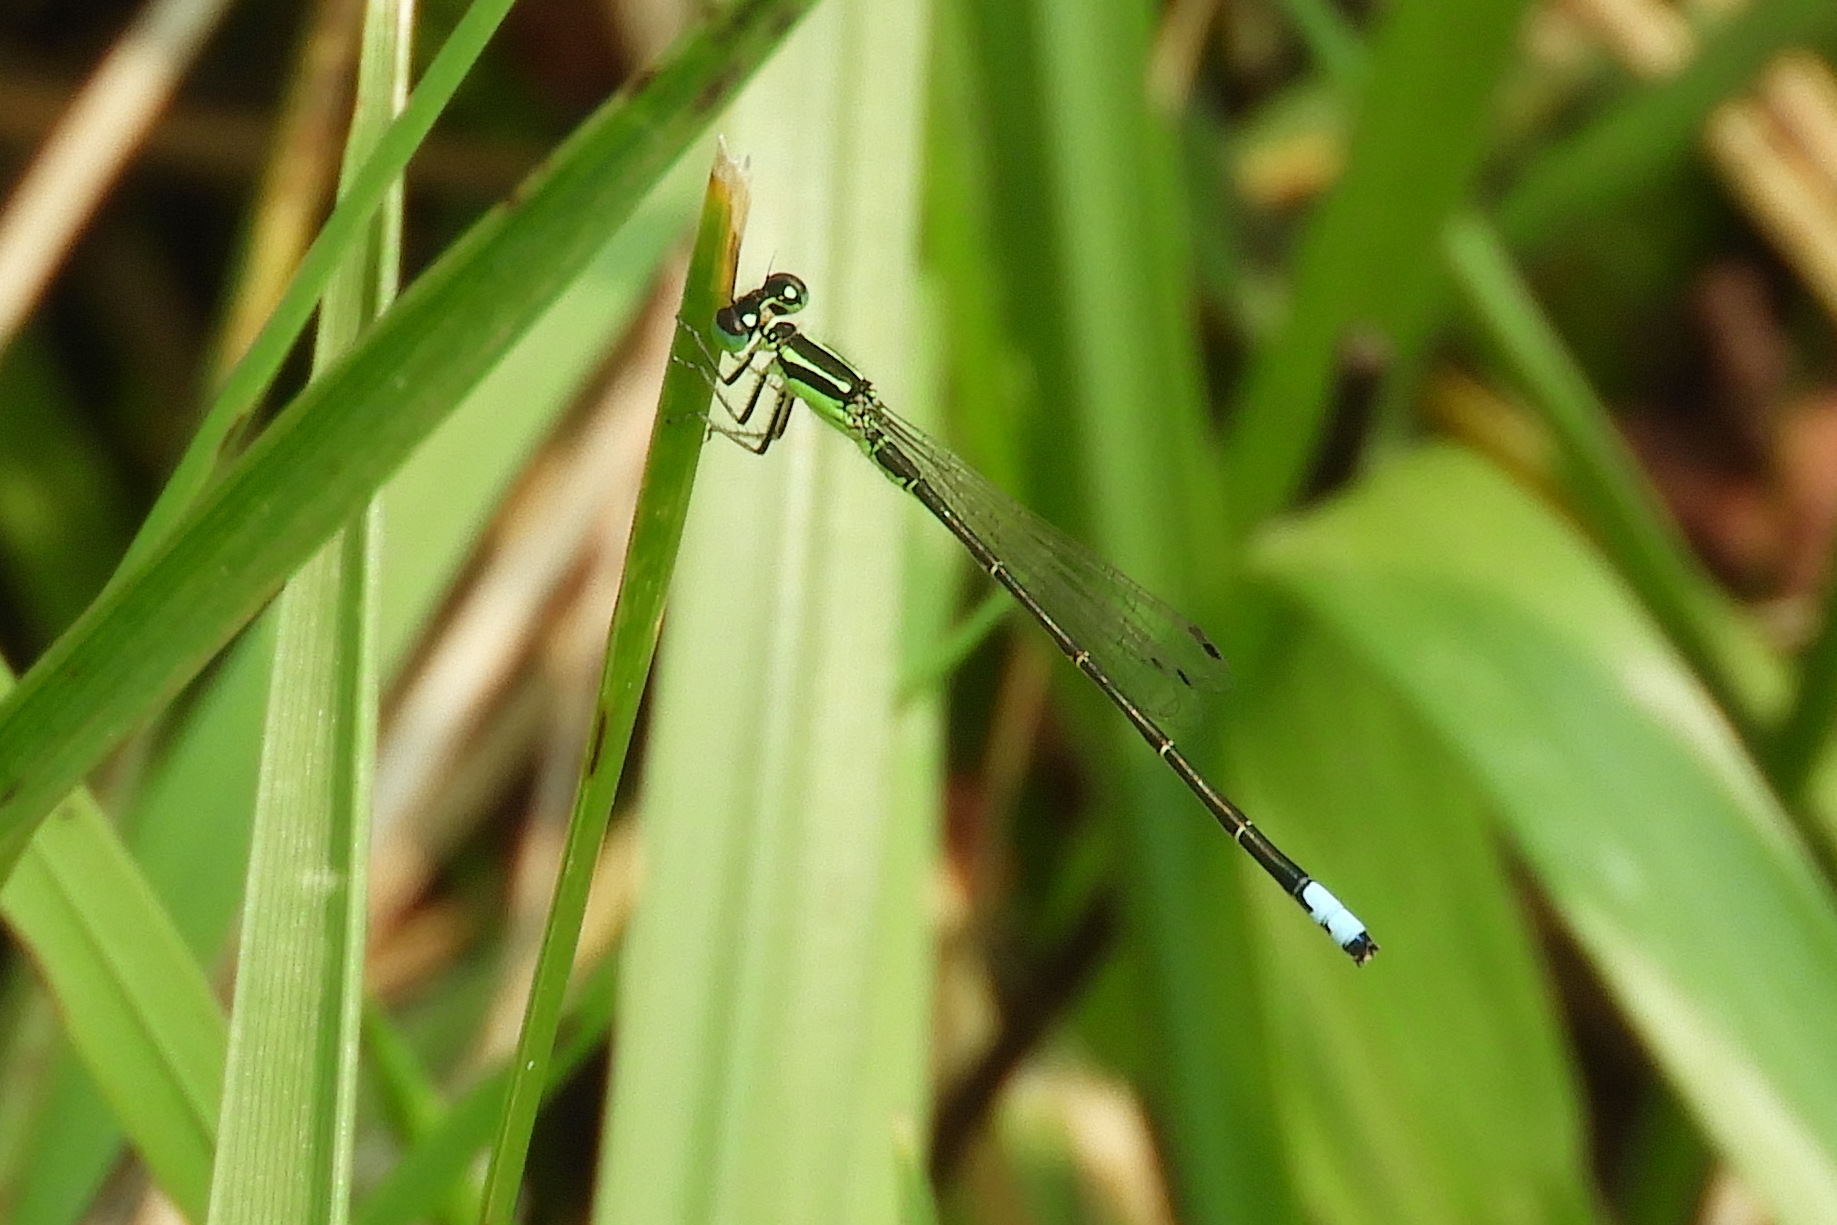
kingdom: Animalia
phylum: Arthropoda
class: Insecta
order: Odonata
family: Coenagrionidae
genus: Ischnura
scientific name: Ischnura verticalis
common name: Eastern forktail
